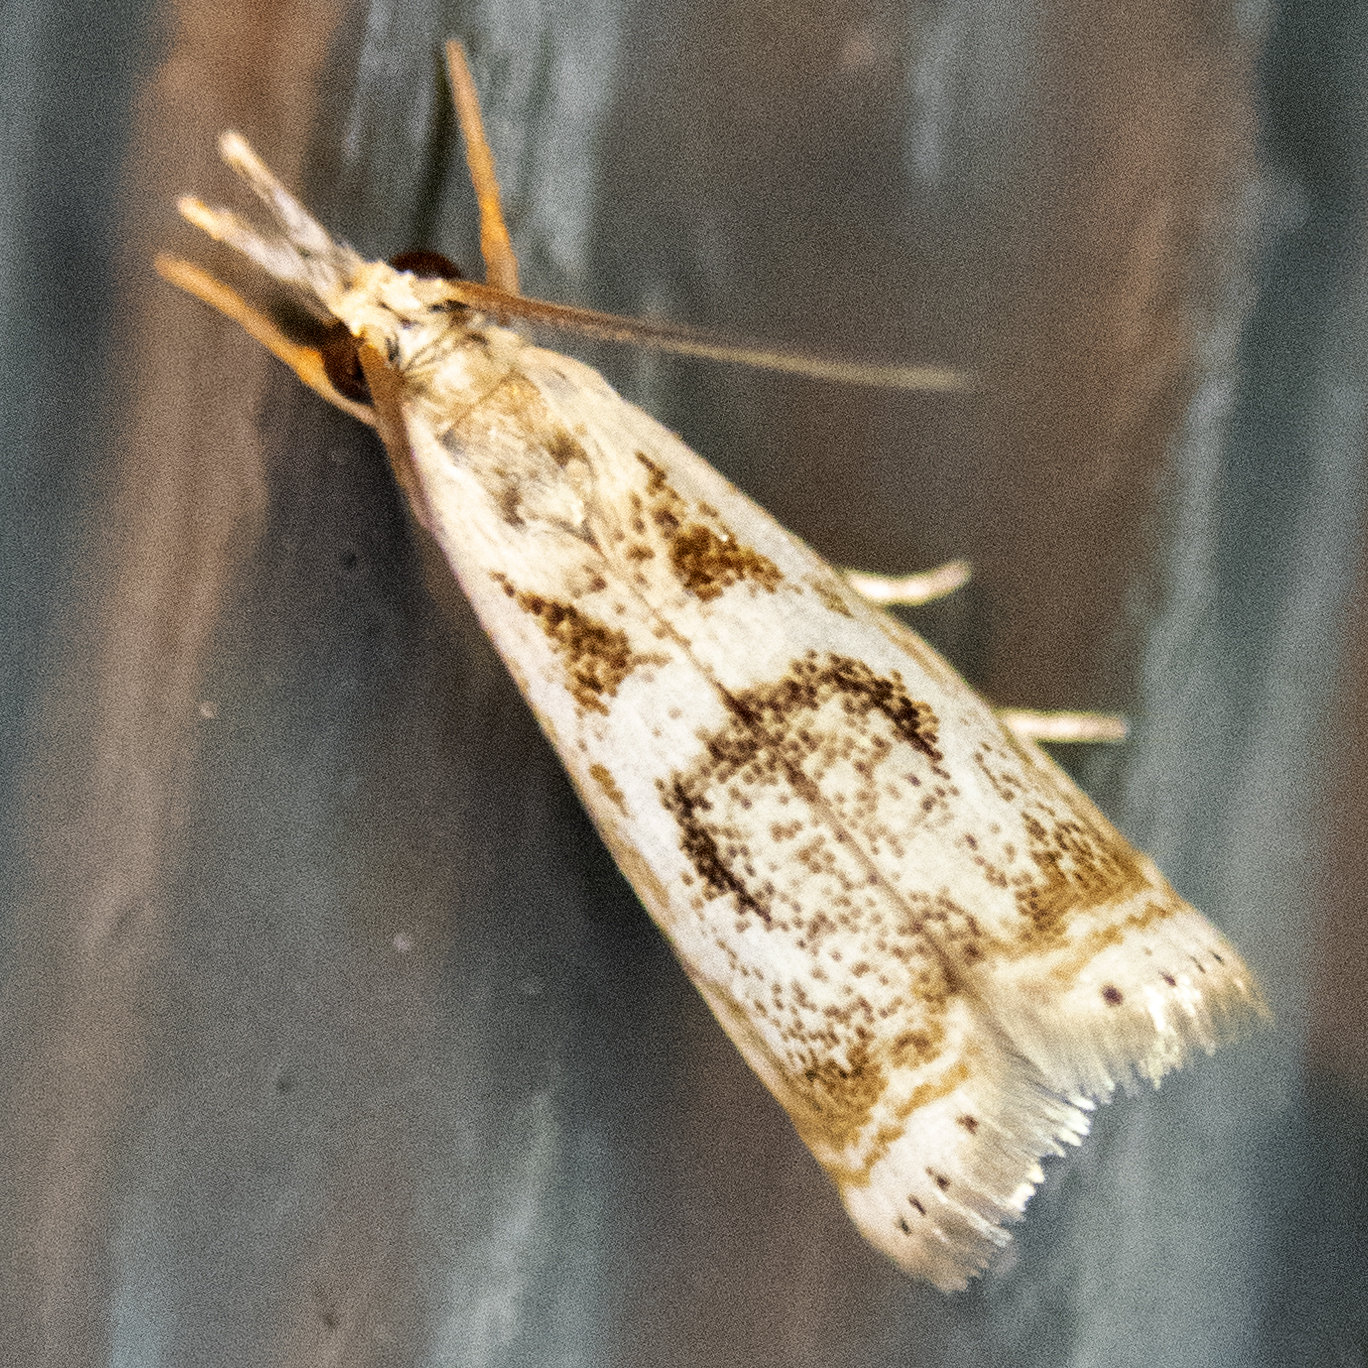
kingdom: Animalia
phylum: Arthropoda
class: Insecta
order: Lepidoptera
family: Crambidae
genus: Microcrambus
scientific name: Microcrambus elegans
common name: Elegant grass-veneer
